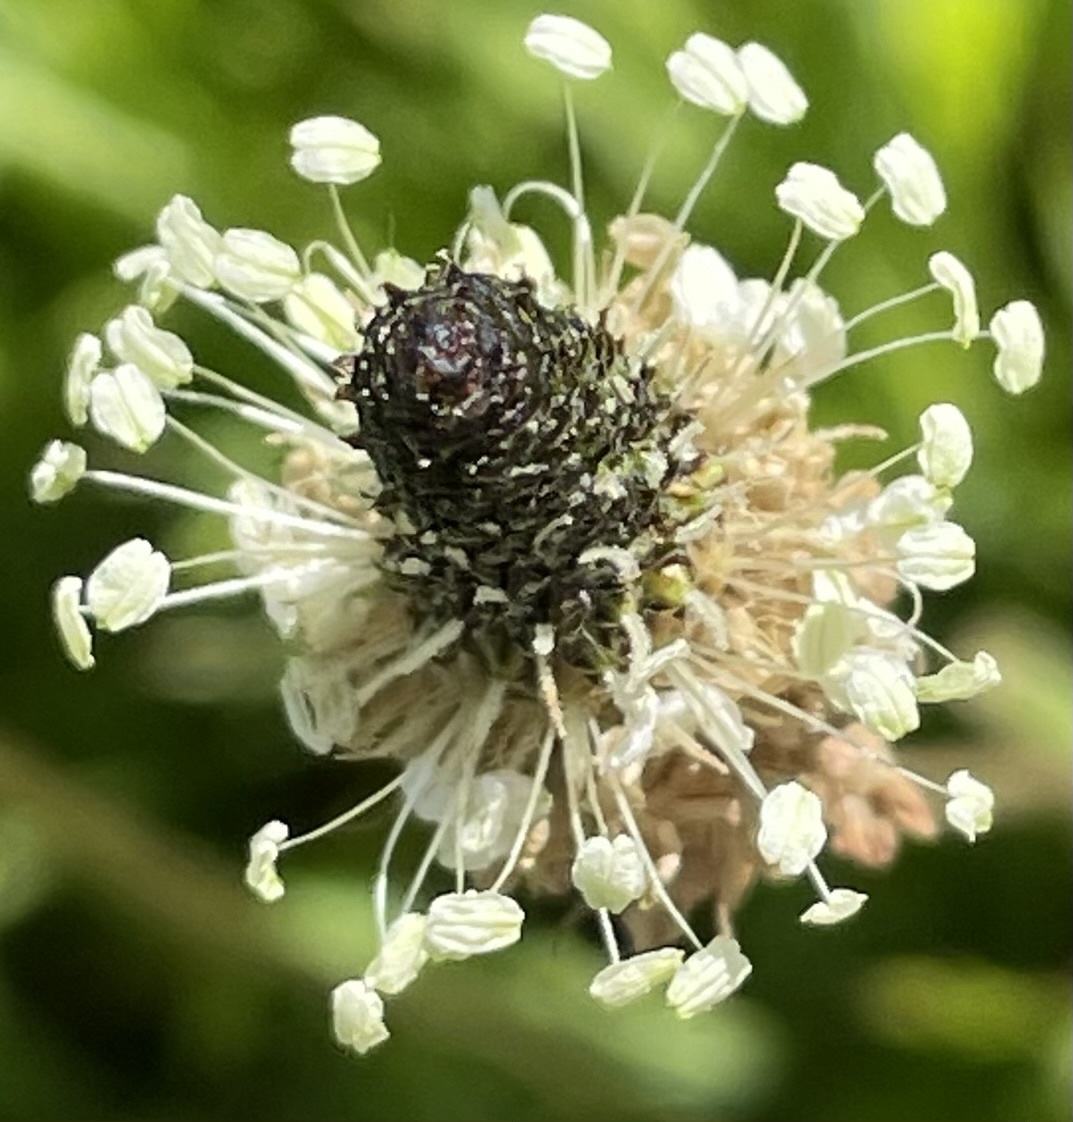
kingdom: Plantae
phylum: Tracheophyta
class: Magnoliopsida
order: Lamiales
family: Plantaginaceae
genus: Plantago
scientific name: Plantago lanceolata
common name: Ribwort plantain
